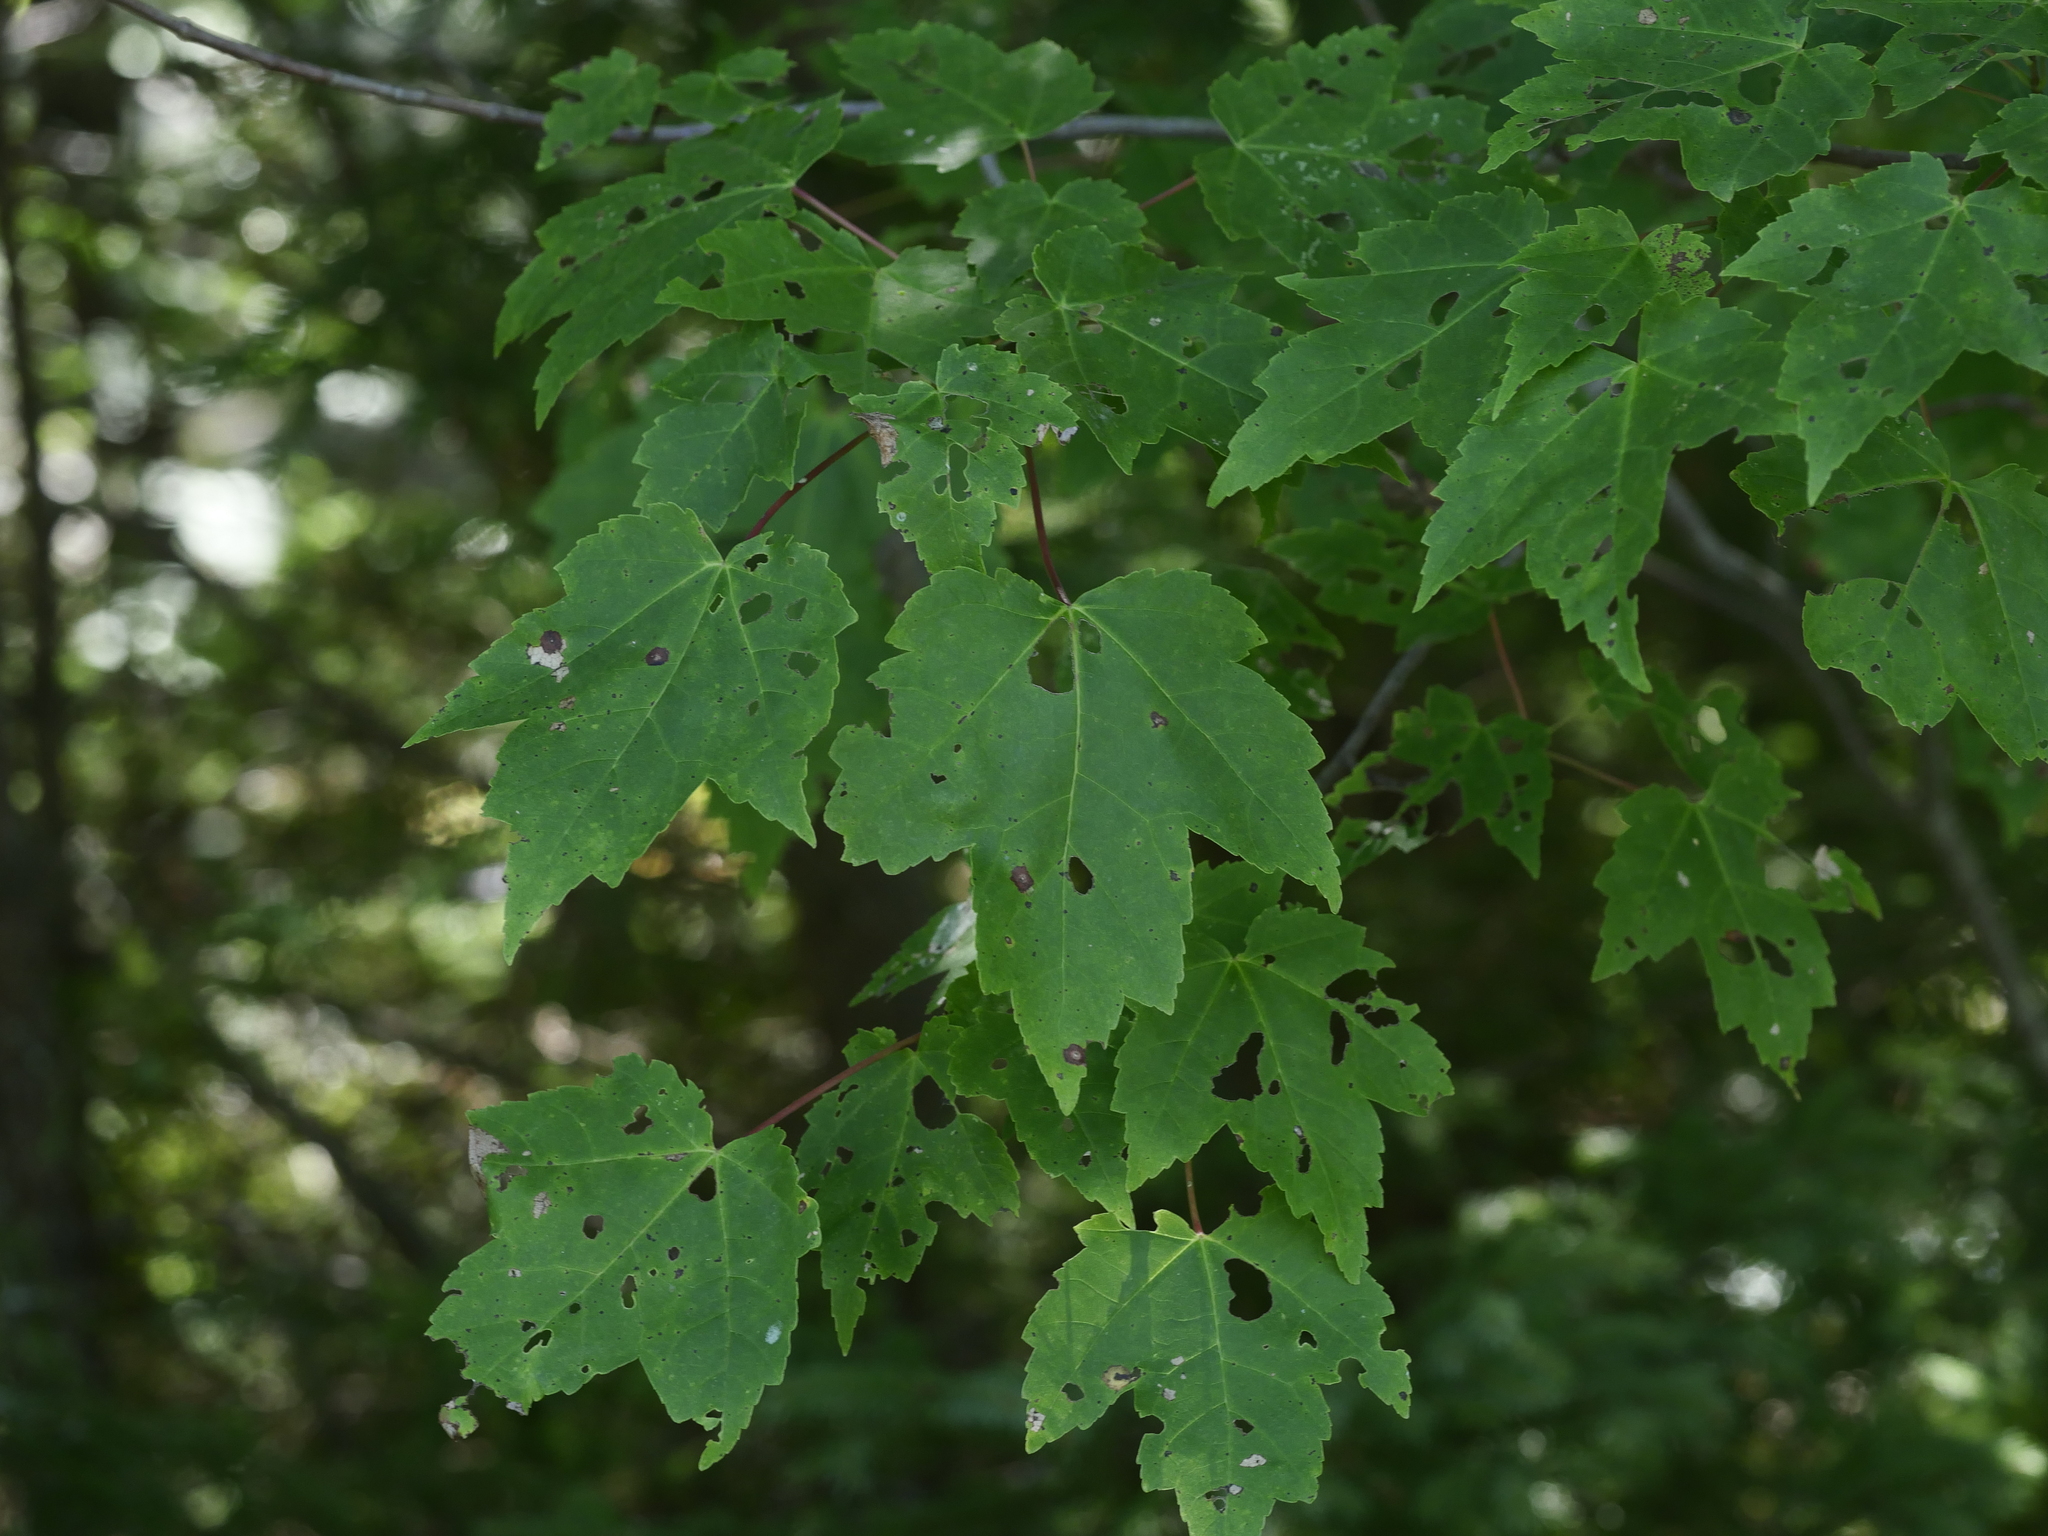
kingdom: Plantae
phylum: Tracheophyta
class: Magnoliopsida
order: Sapindales
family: Sapindaceae
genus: Acer
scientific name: Acer rubrum
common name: Red maple
